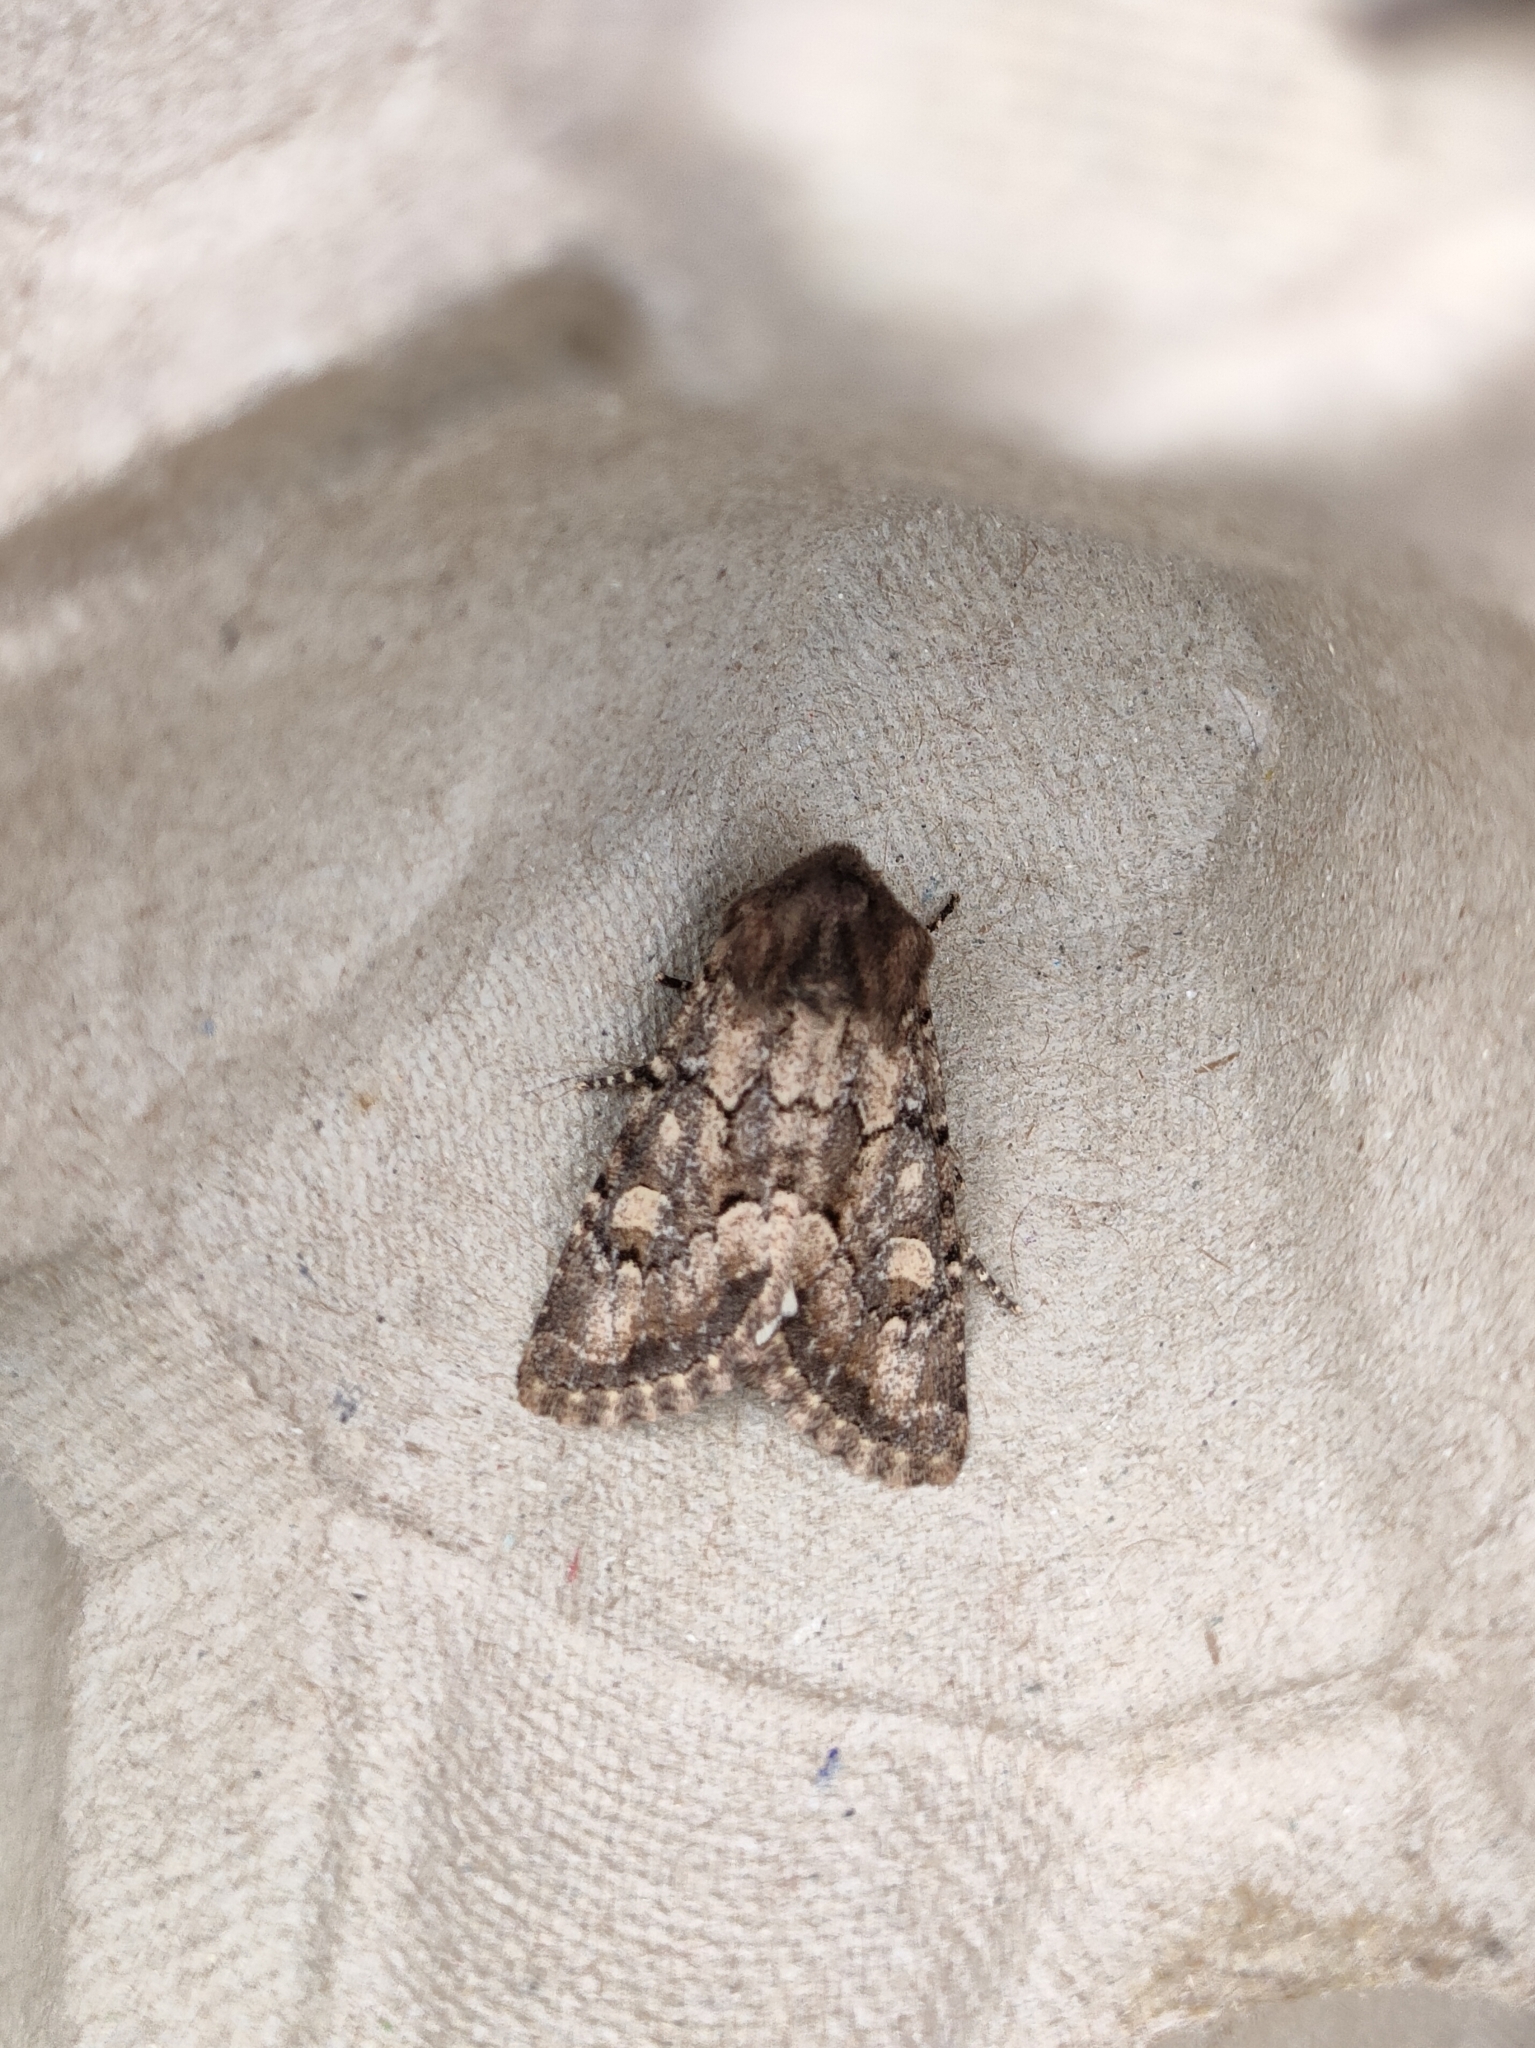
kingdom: Animalia
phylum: Arthropoda
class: Insecta
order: Lepidoptera
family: Noctuidae
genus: Luperina
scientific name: Luperina testacea
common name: Flounced rustic
